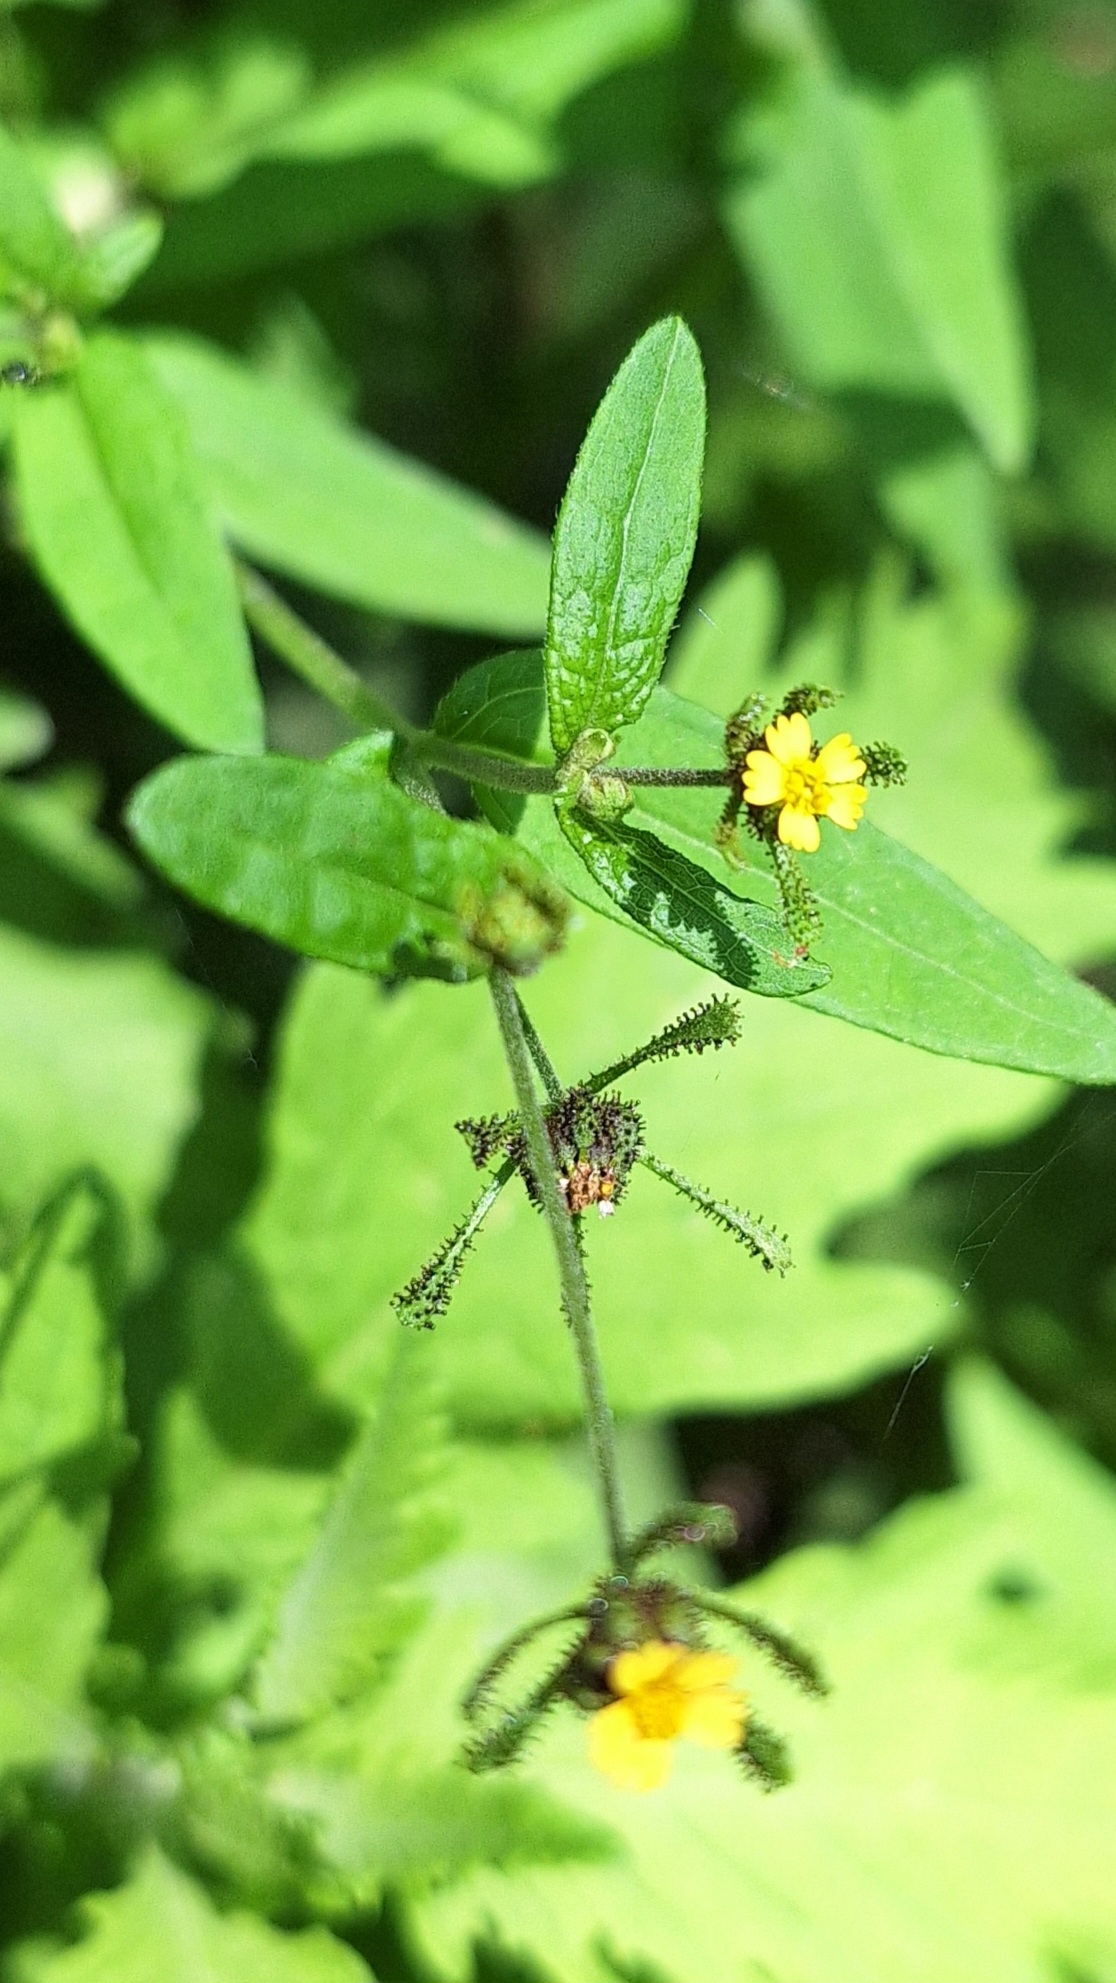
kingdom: Plantae
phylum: Tracheophyta
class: Magnoliopsida
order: Asterales
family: Asteraceae
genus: Sigesbeckia
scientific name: Sigesbeckia orientalis
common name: Eastern st paul's-wort
